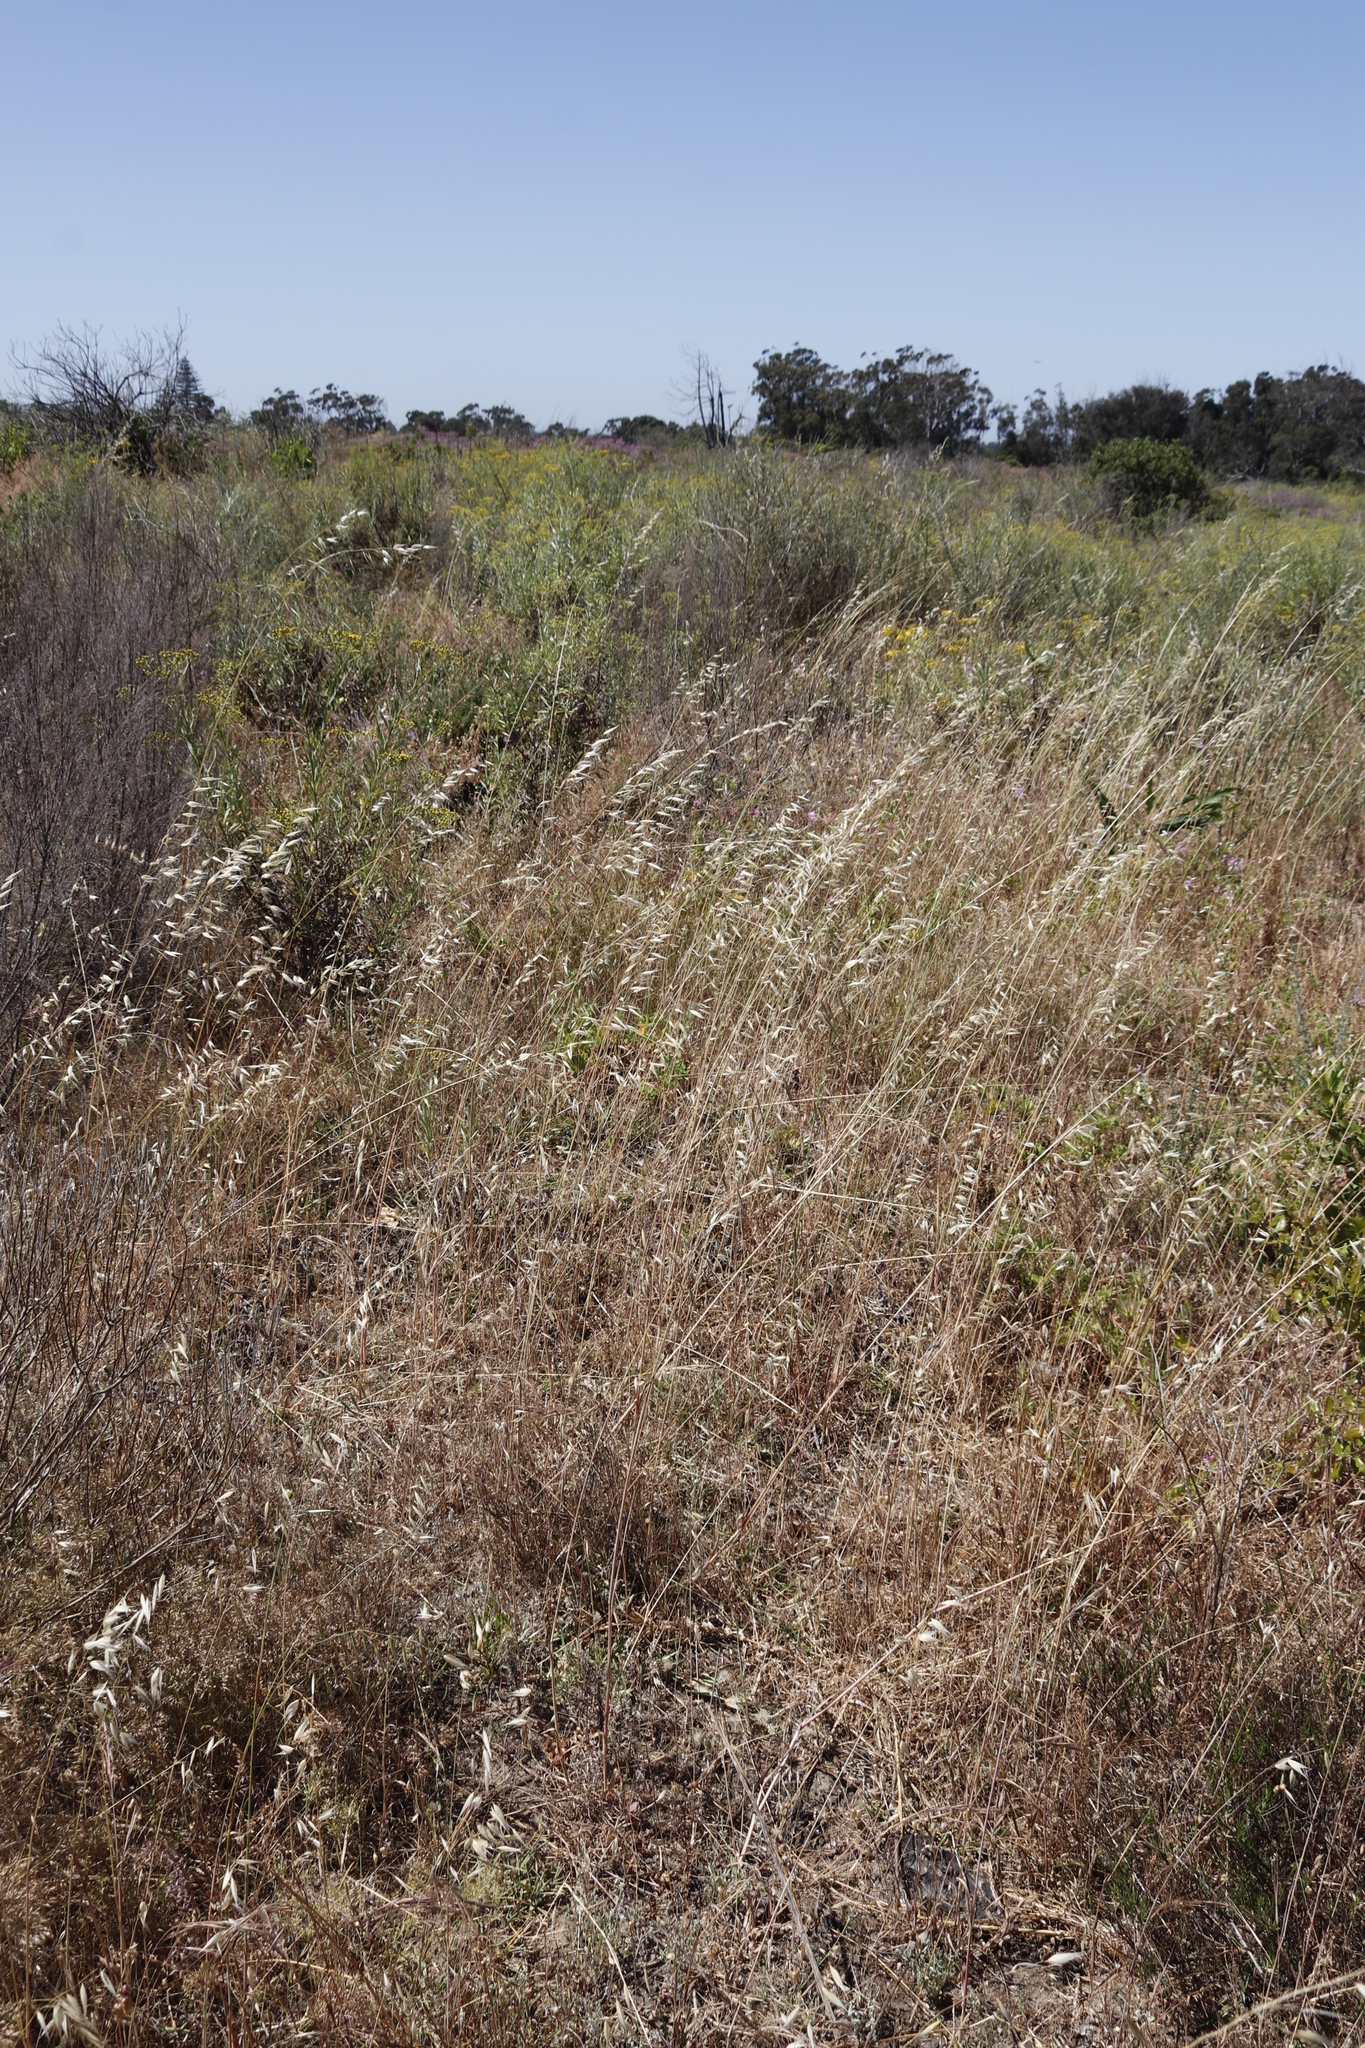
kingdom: Plantae
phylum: Tracheophyta
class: Liliopsida
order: Poales
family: Poaceae
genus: Avena
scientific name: Avena fatua
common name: Wild oat
